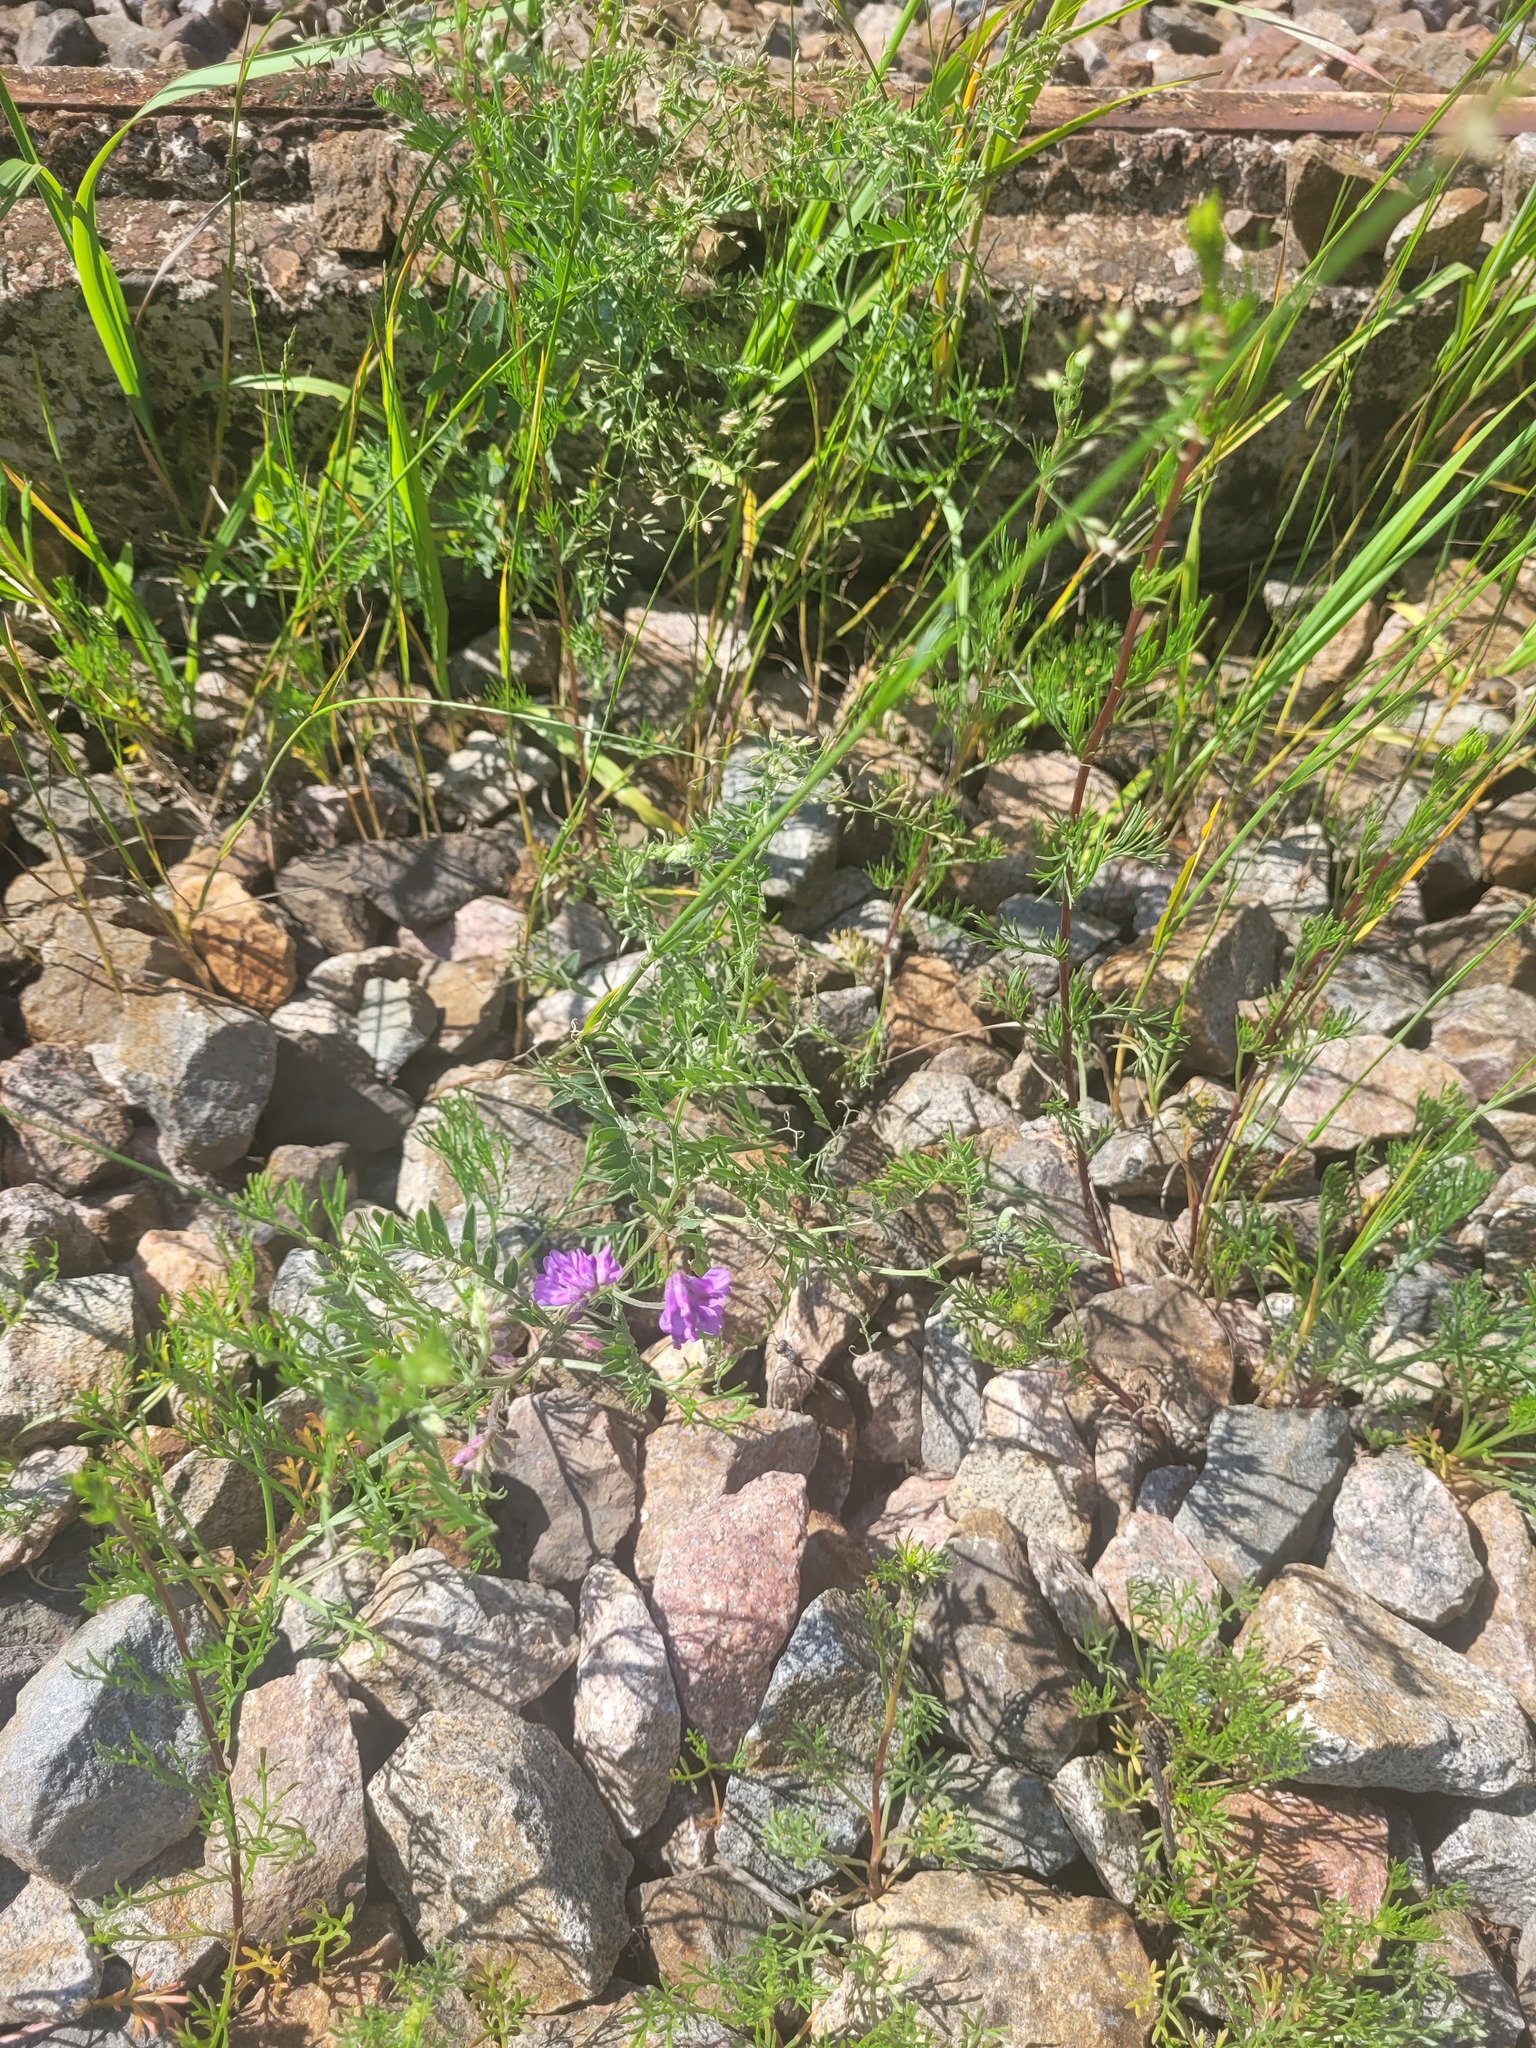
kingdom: Plantae
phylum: Tracheophyta
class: Magnoliopsida
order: Fabales
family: Fabaceae
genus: Vicia
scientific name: Vicia cracca
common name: Bird vetch
